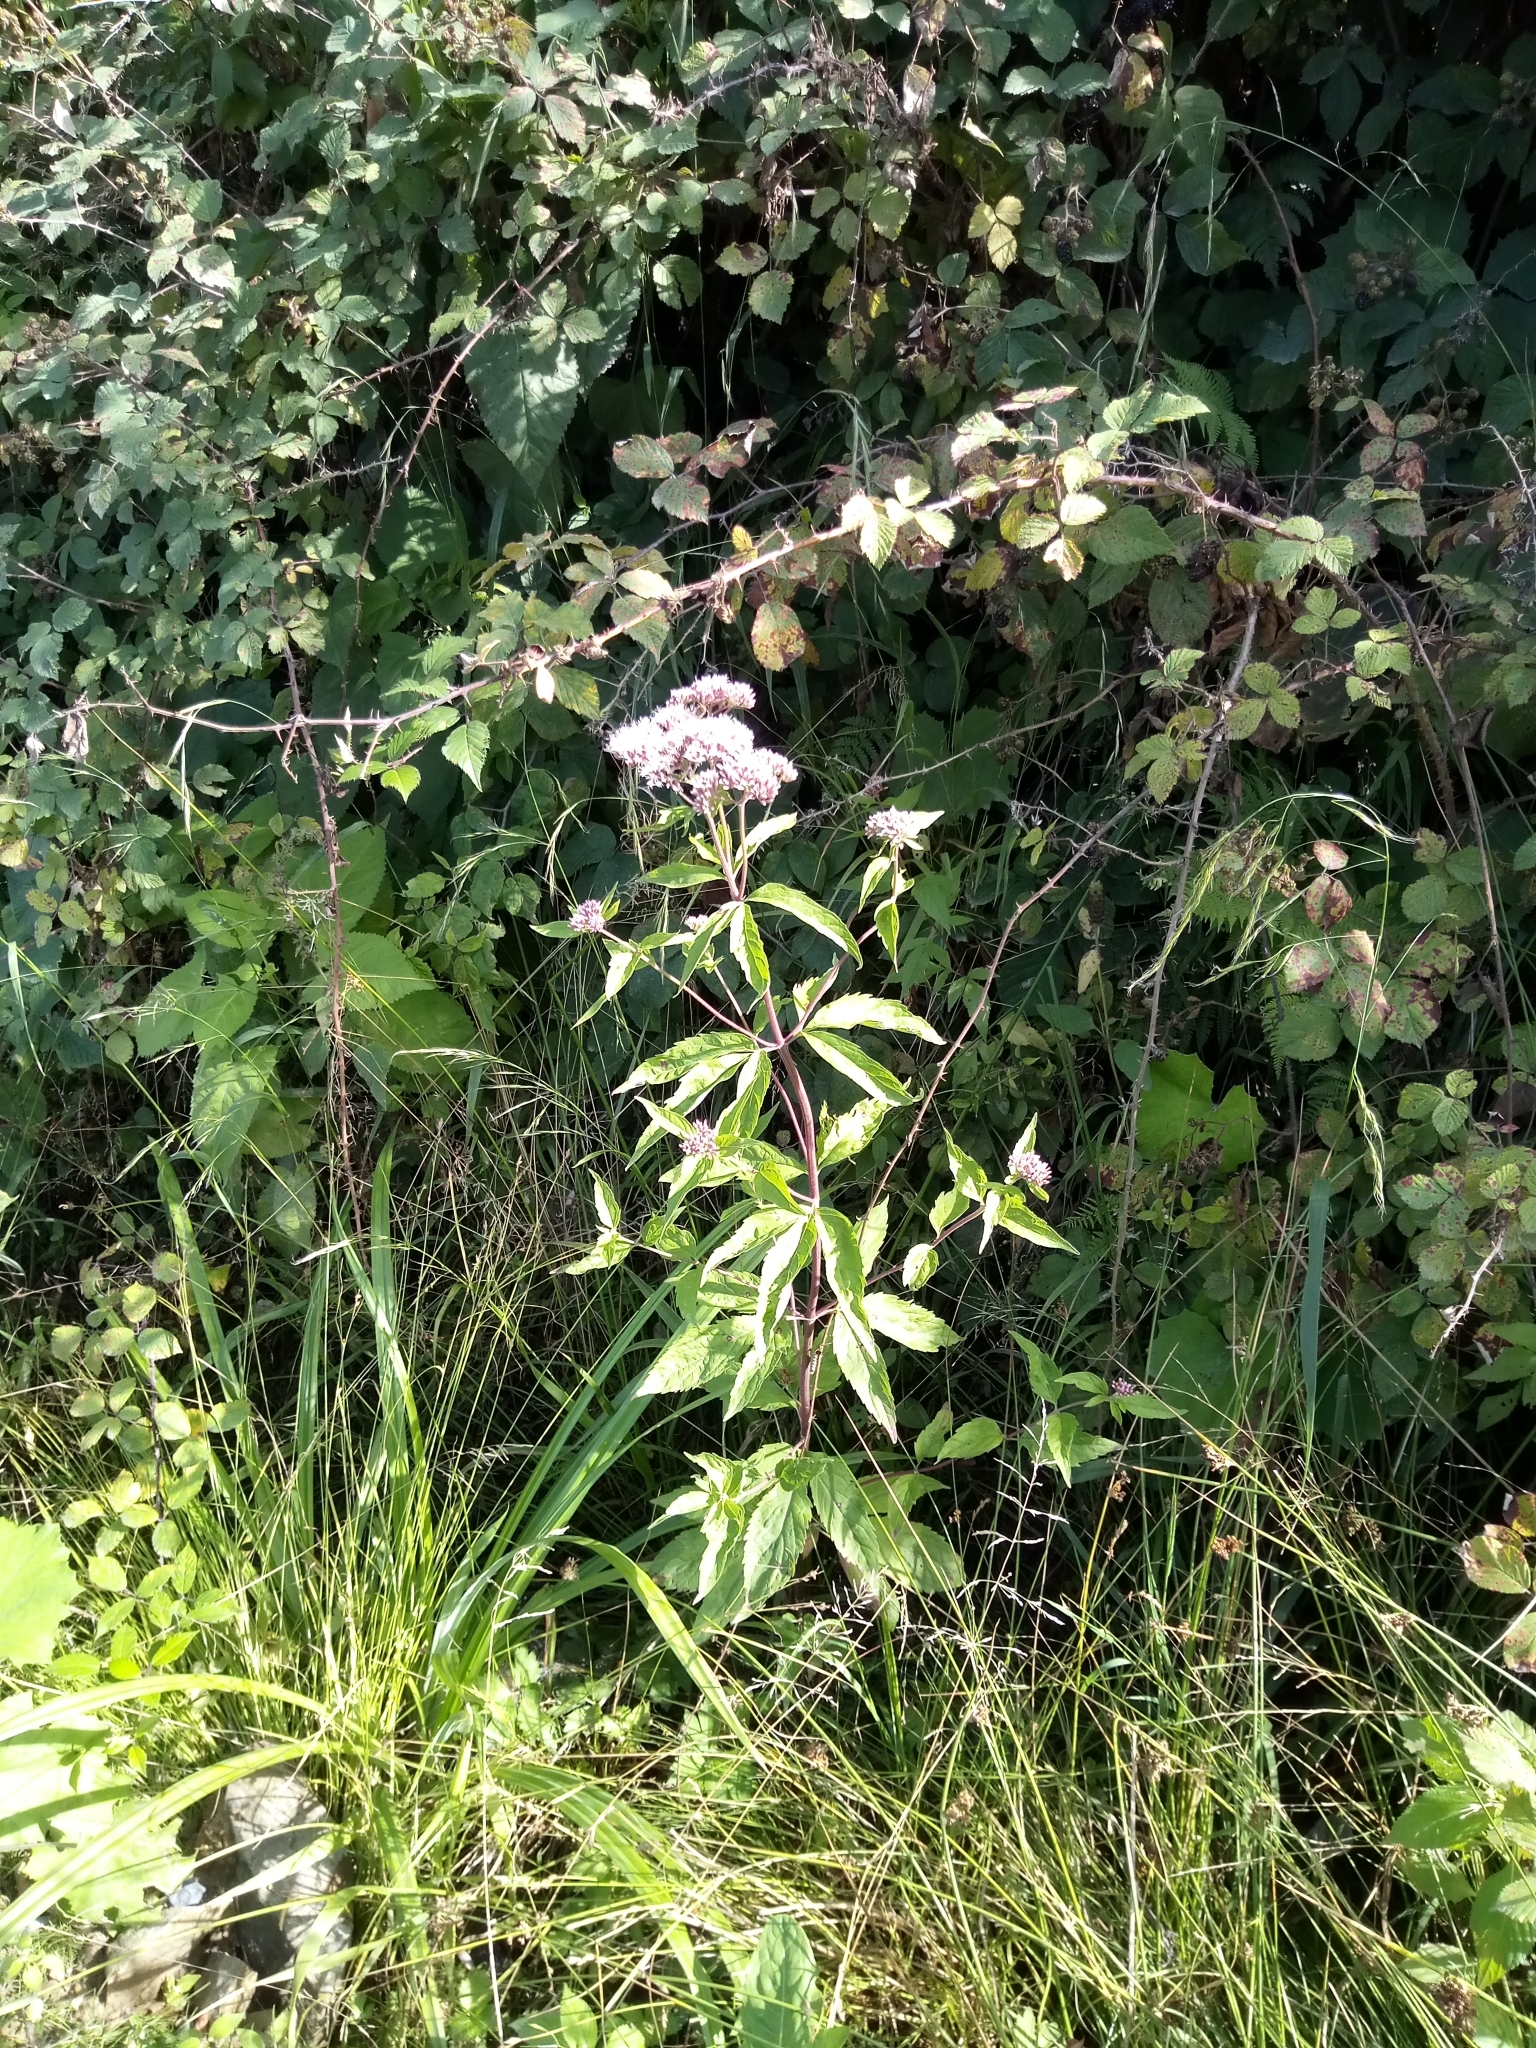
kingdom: Plantae
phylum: Tracheophyta
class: Magnoliopsida
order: Asterales
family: Asteraceae
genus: Eupatorium
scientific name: Eupatorium cannabinum
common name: Hemp-agrimony
